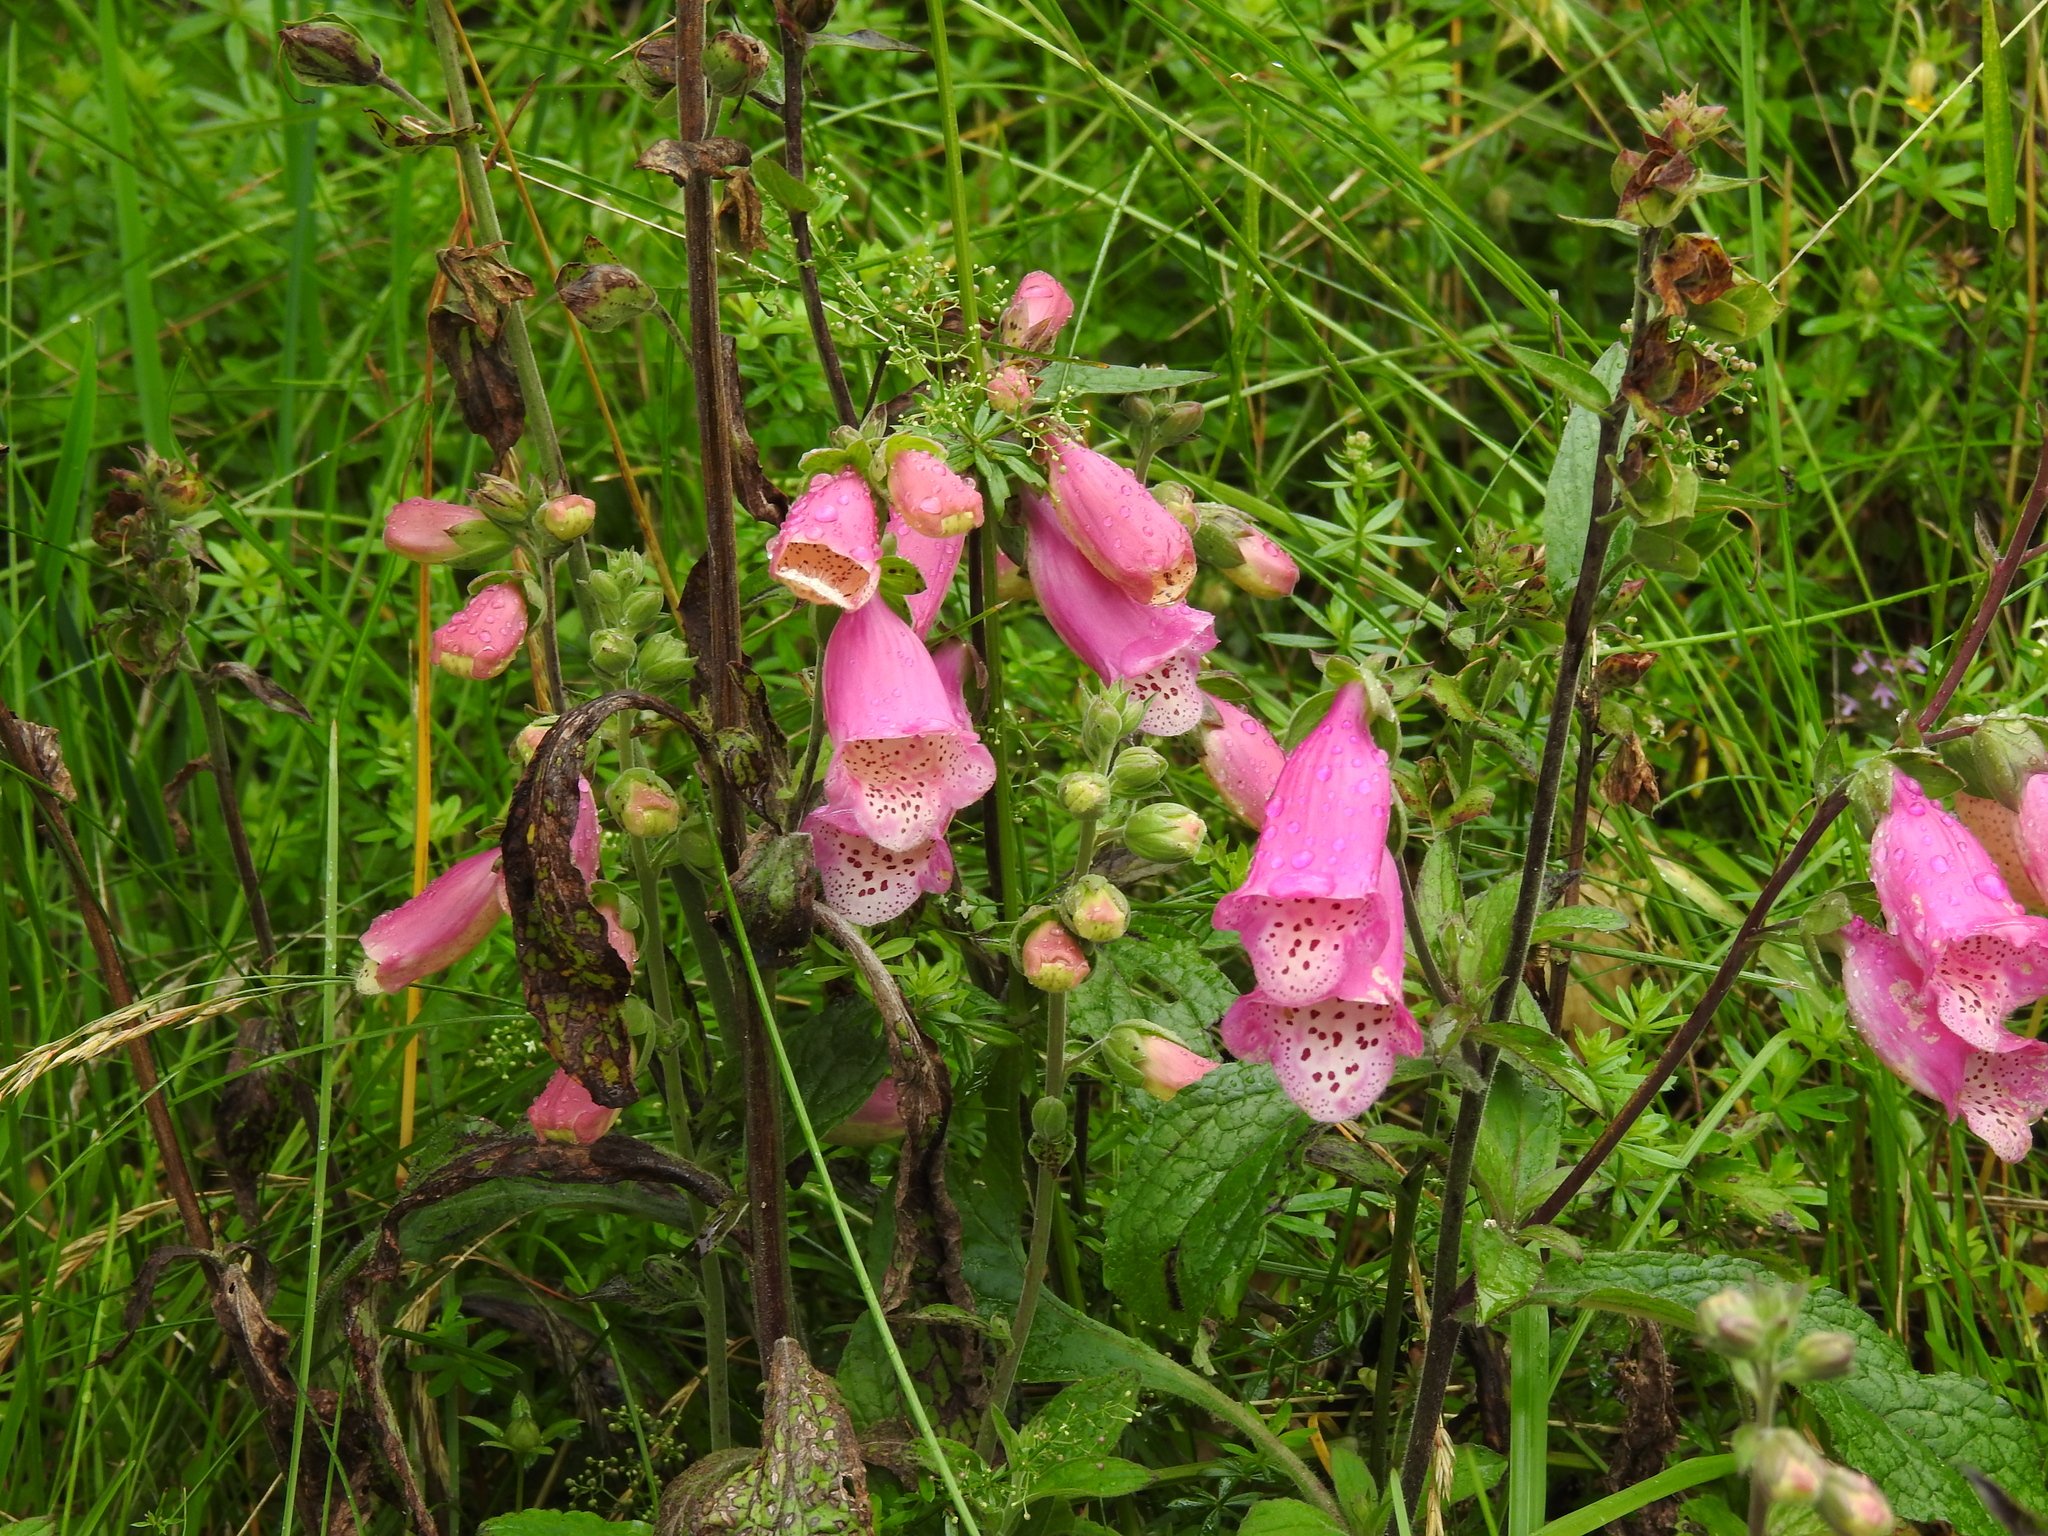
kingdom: Plantae
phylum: Tracheophyta
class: Magnoliopsida
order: Lamiales
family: Plantaginaceae
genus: Digitalis
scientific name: Digitalis purpurea
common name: Foxglove
